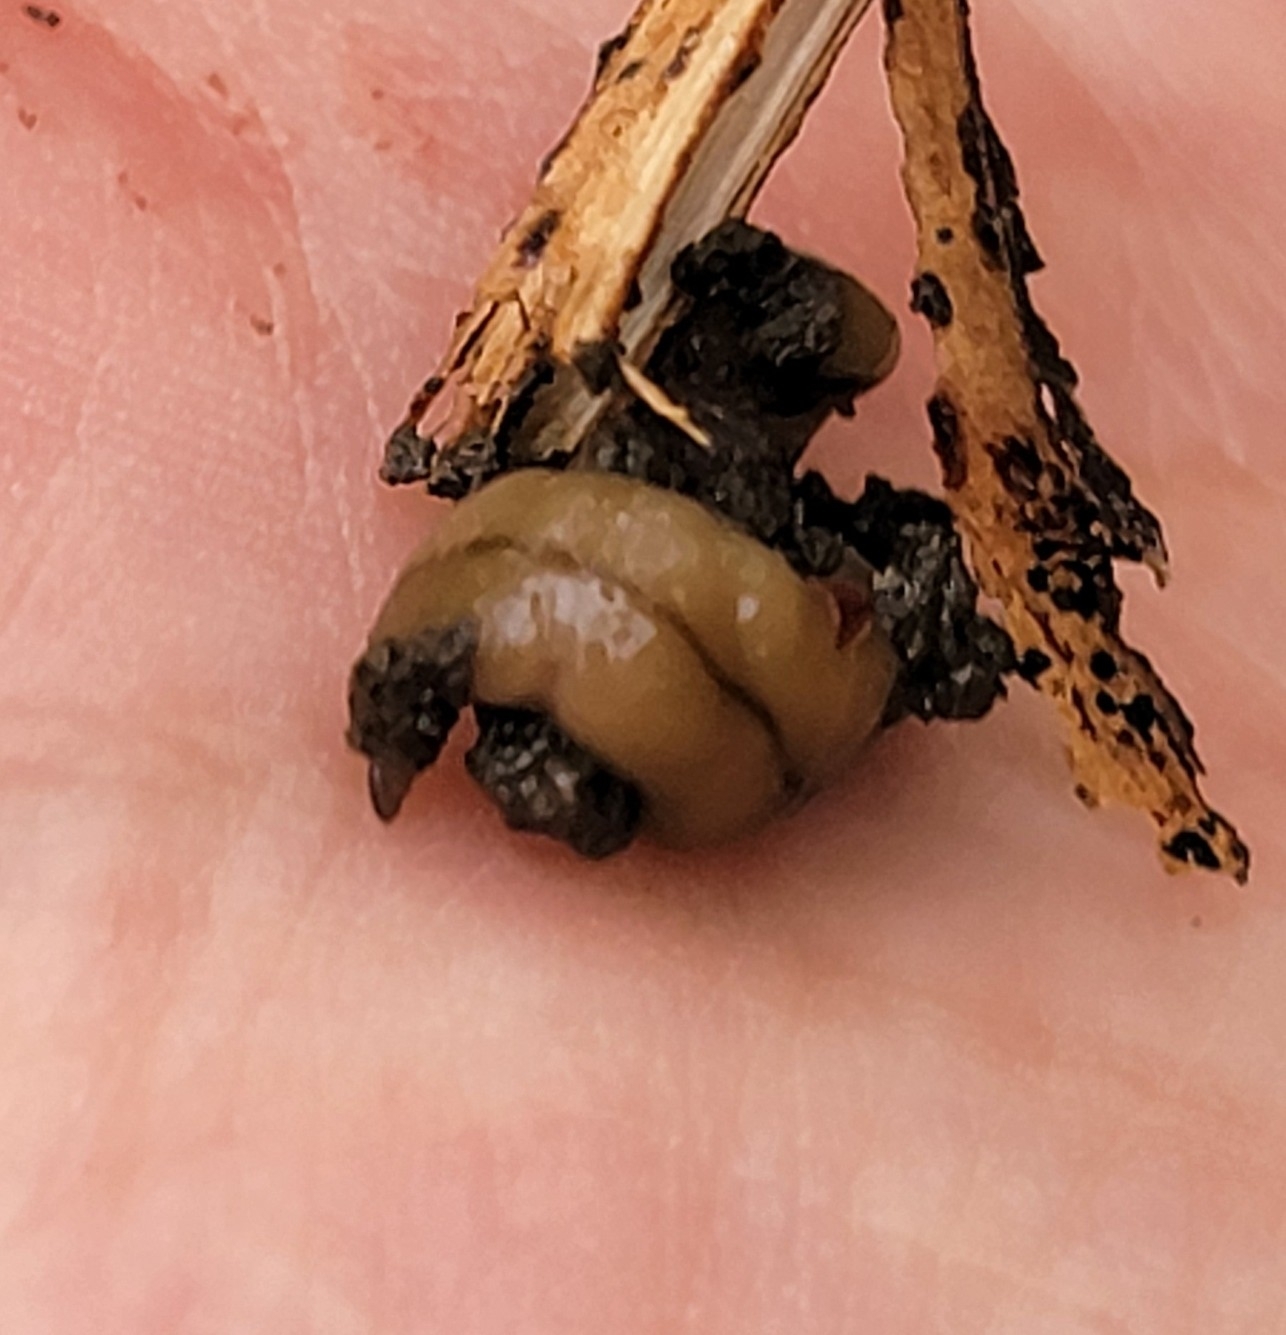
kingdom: Animalia
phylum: Platyhelminthes
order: Tricladida
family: Geoplanidae
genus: Bipalium
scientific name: Bipalium adventitium
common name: Land planarian
